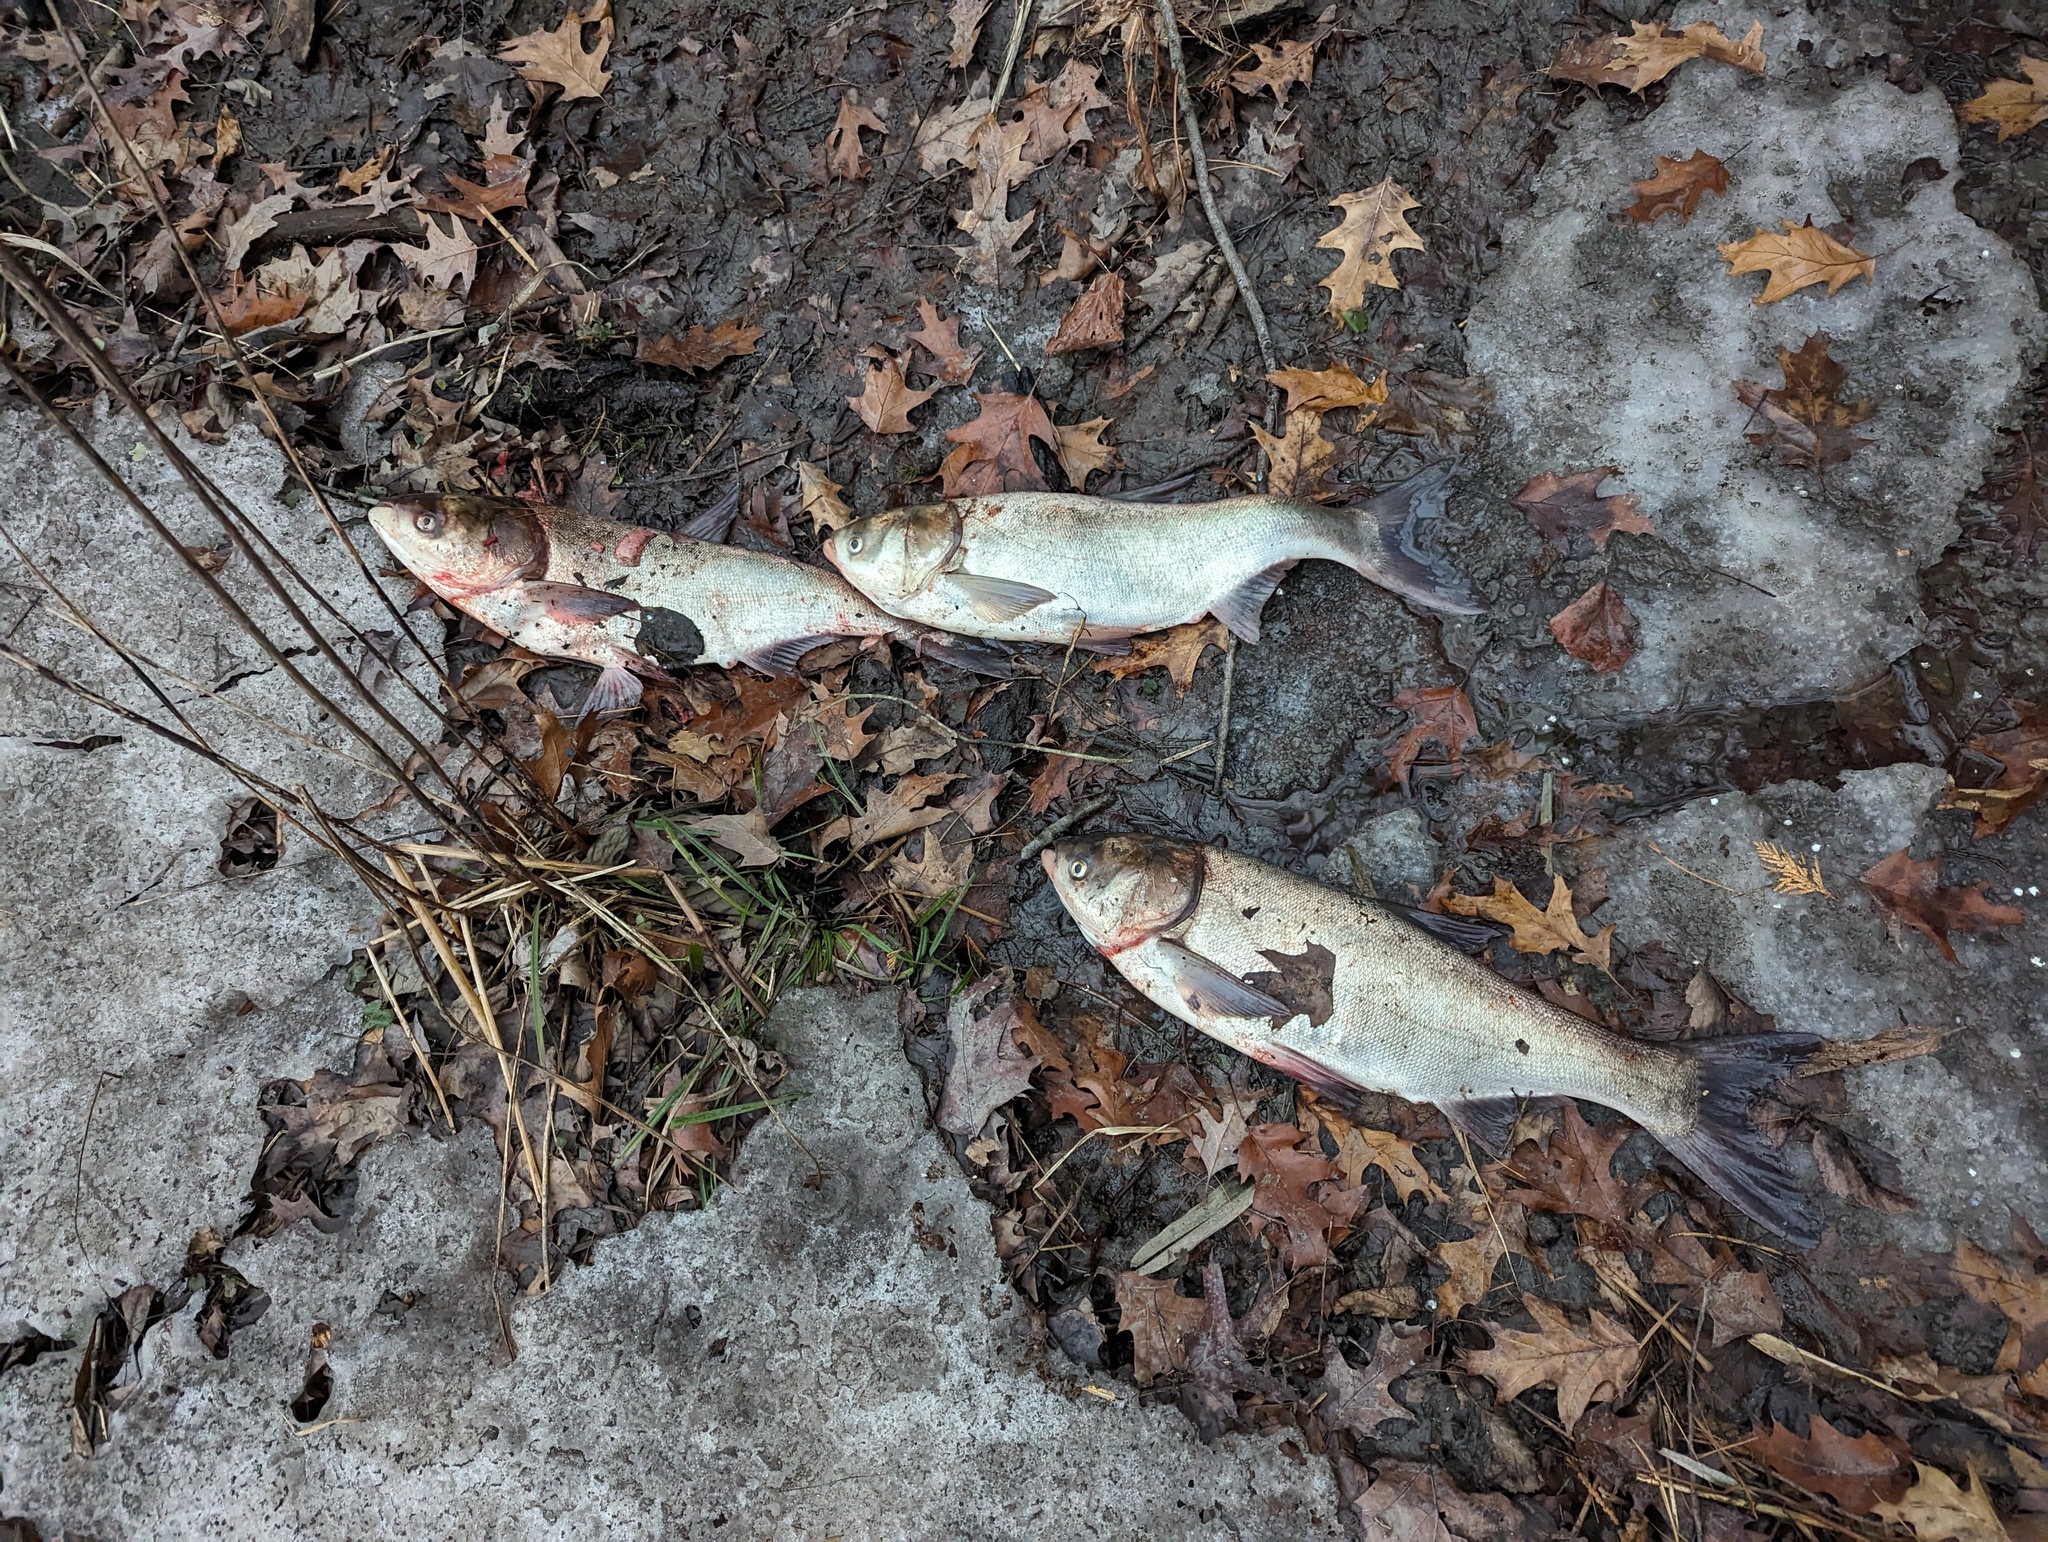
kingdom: Animalia
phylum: Chordata
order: Cypriniformes
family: Cyprinidae
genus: Hypophthalmichthys
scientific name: Hypophthalmichthys molitrix
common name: Silver carp
